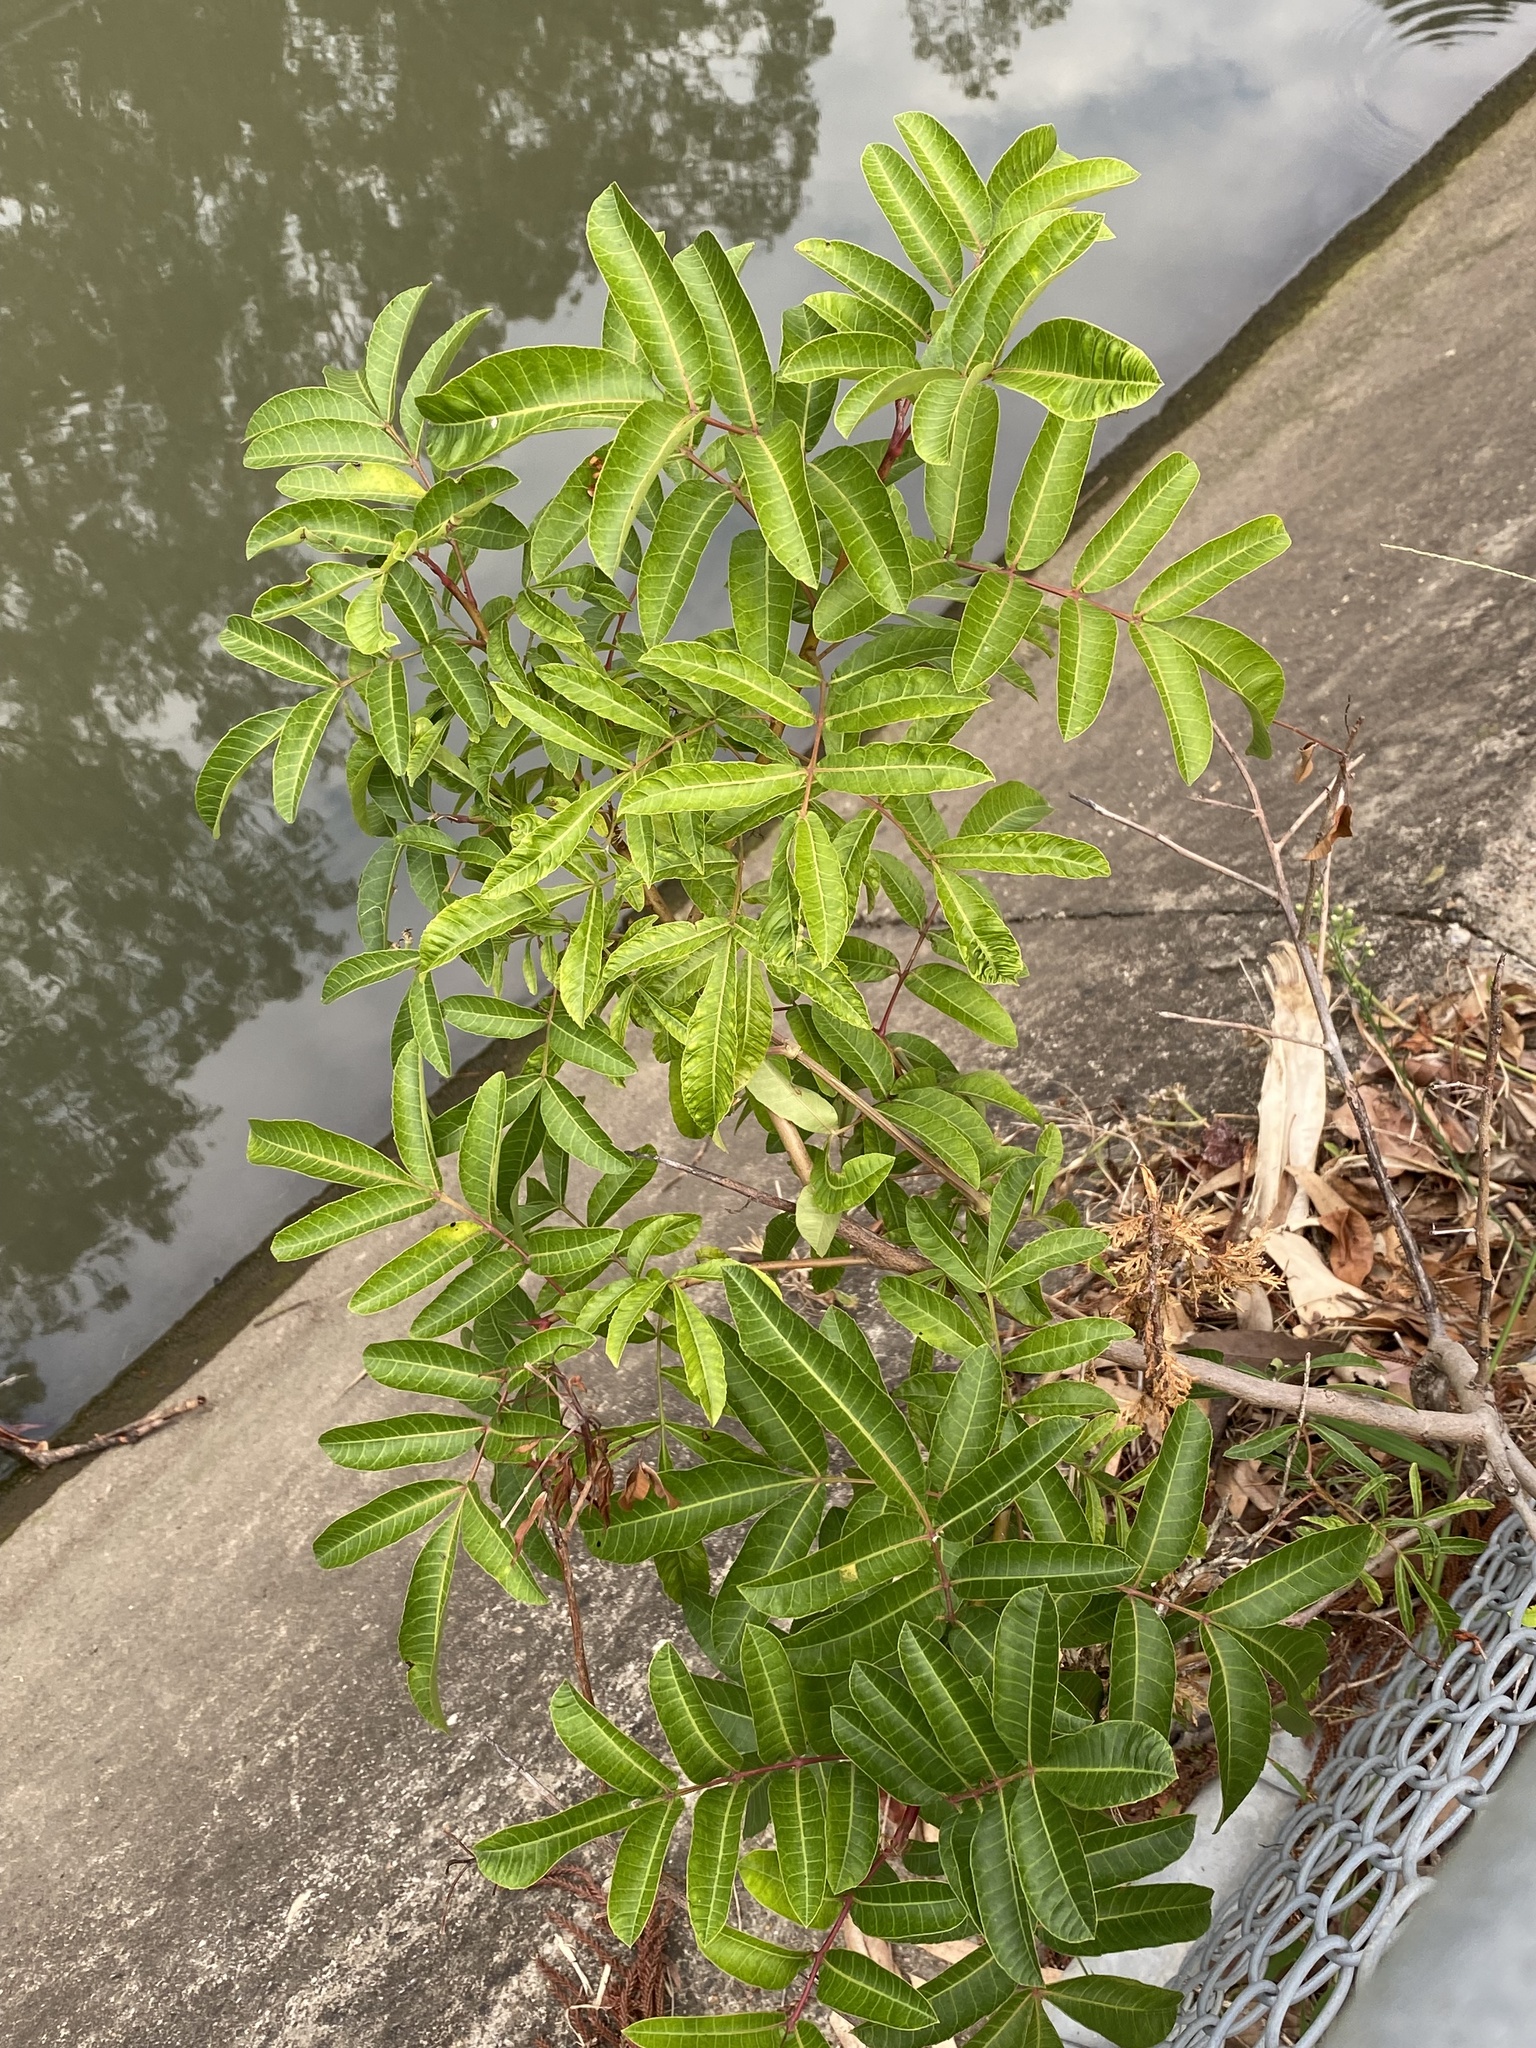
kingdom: Plantae
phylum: Tracheophyta
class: Magnoliopsida
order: Sapindales
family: Anacardiaceae
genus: Schinus
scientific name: Schinus terebinthifolia
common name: Brazilian peppertree
